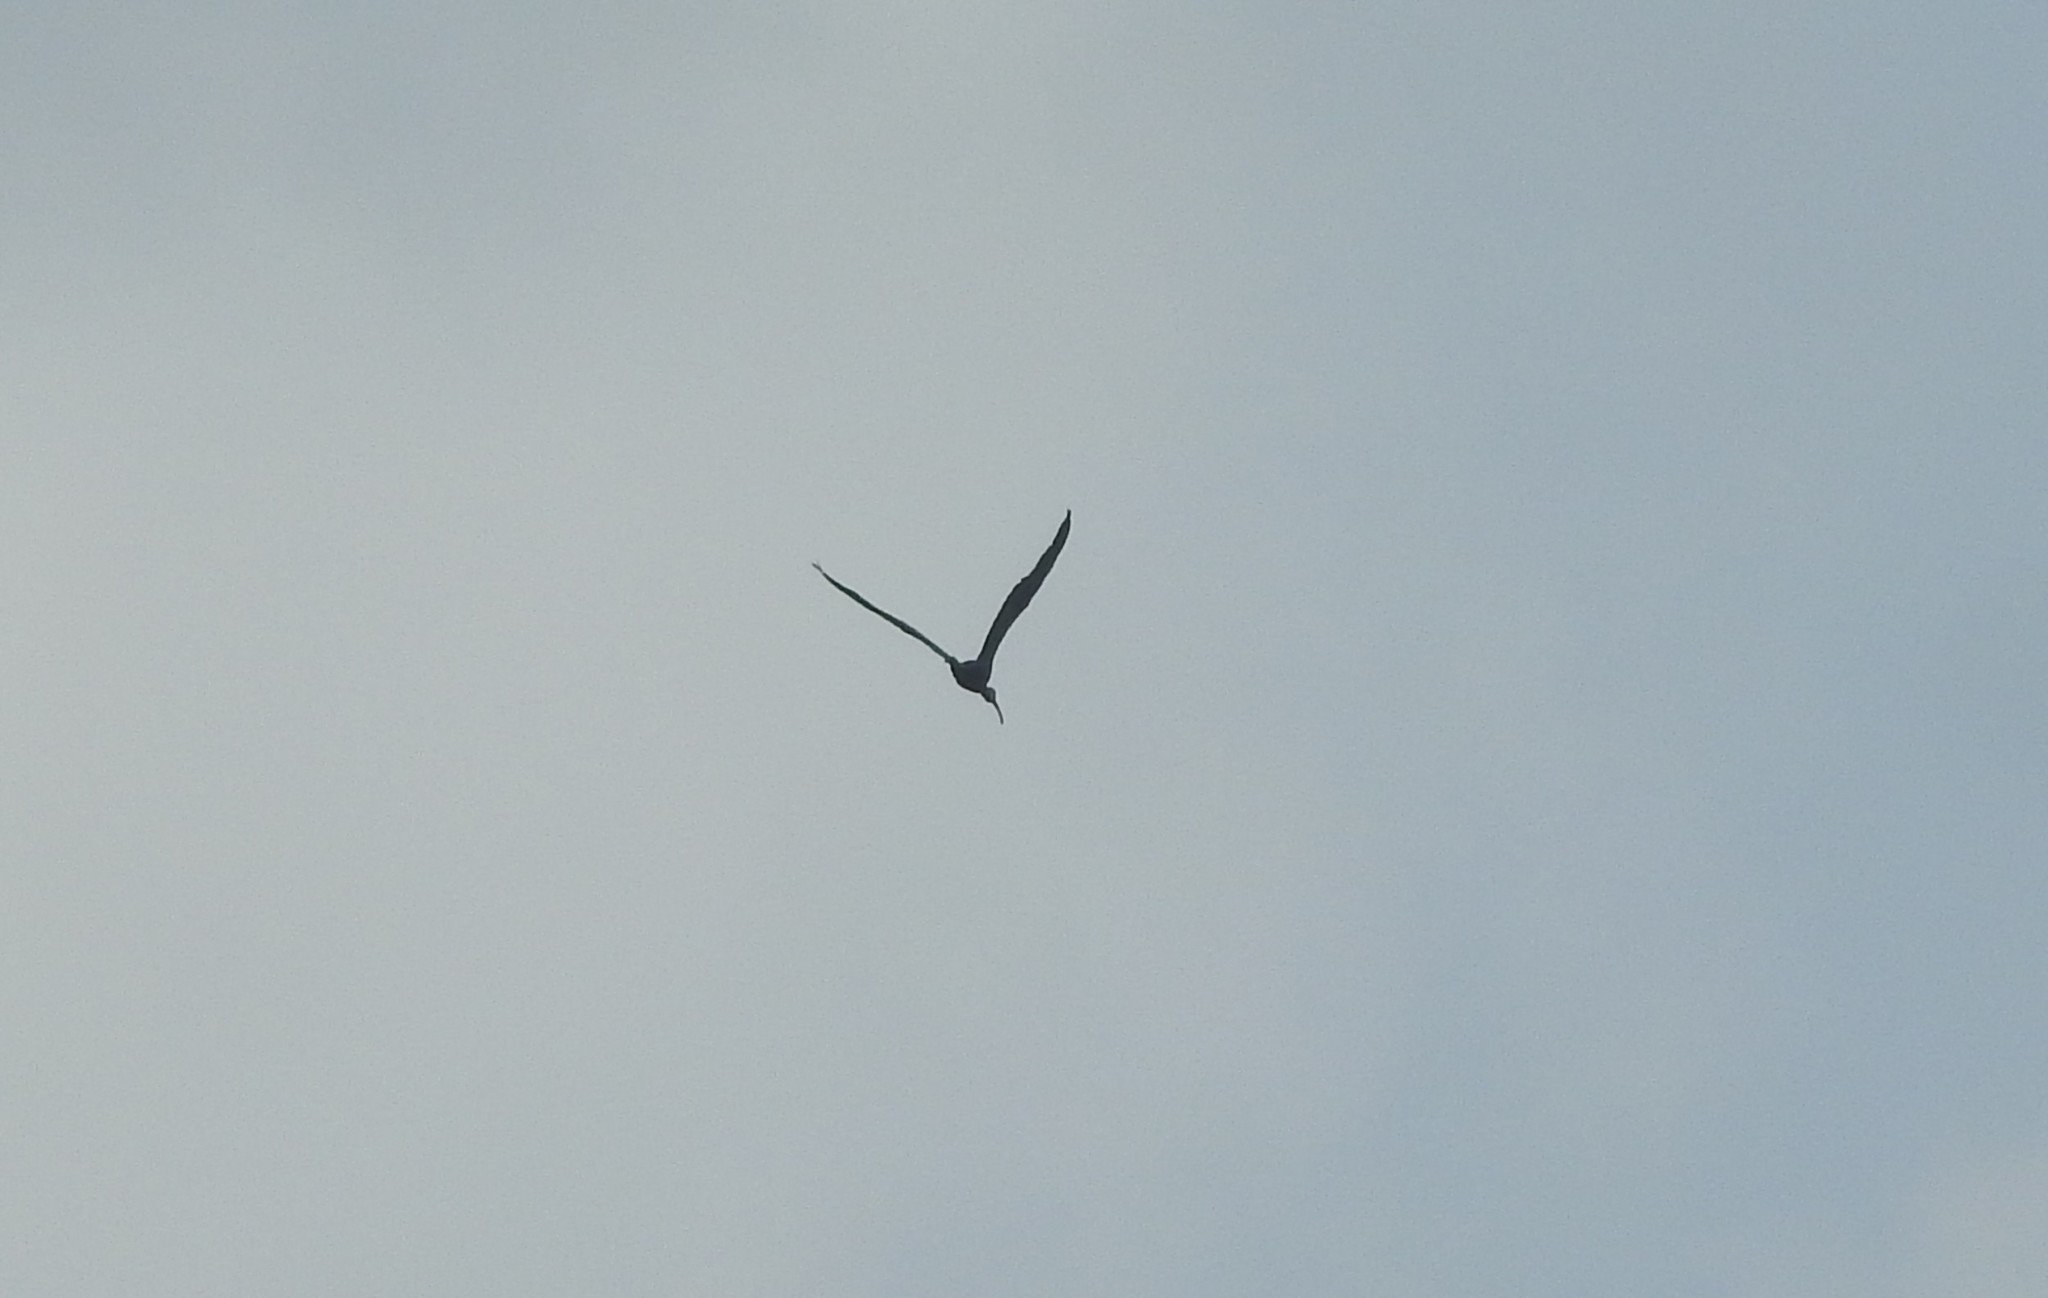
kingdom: Animalia
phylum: Chordata
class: Aves
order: Pelecaniformes
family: Threskiornithidae
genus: Plegadis
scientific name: Plegadis falcinellus
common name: Glossy ibis
